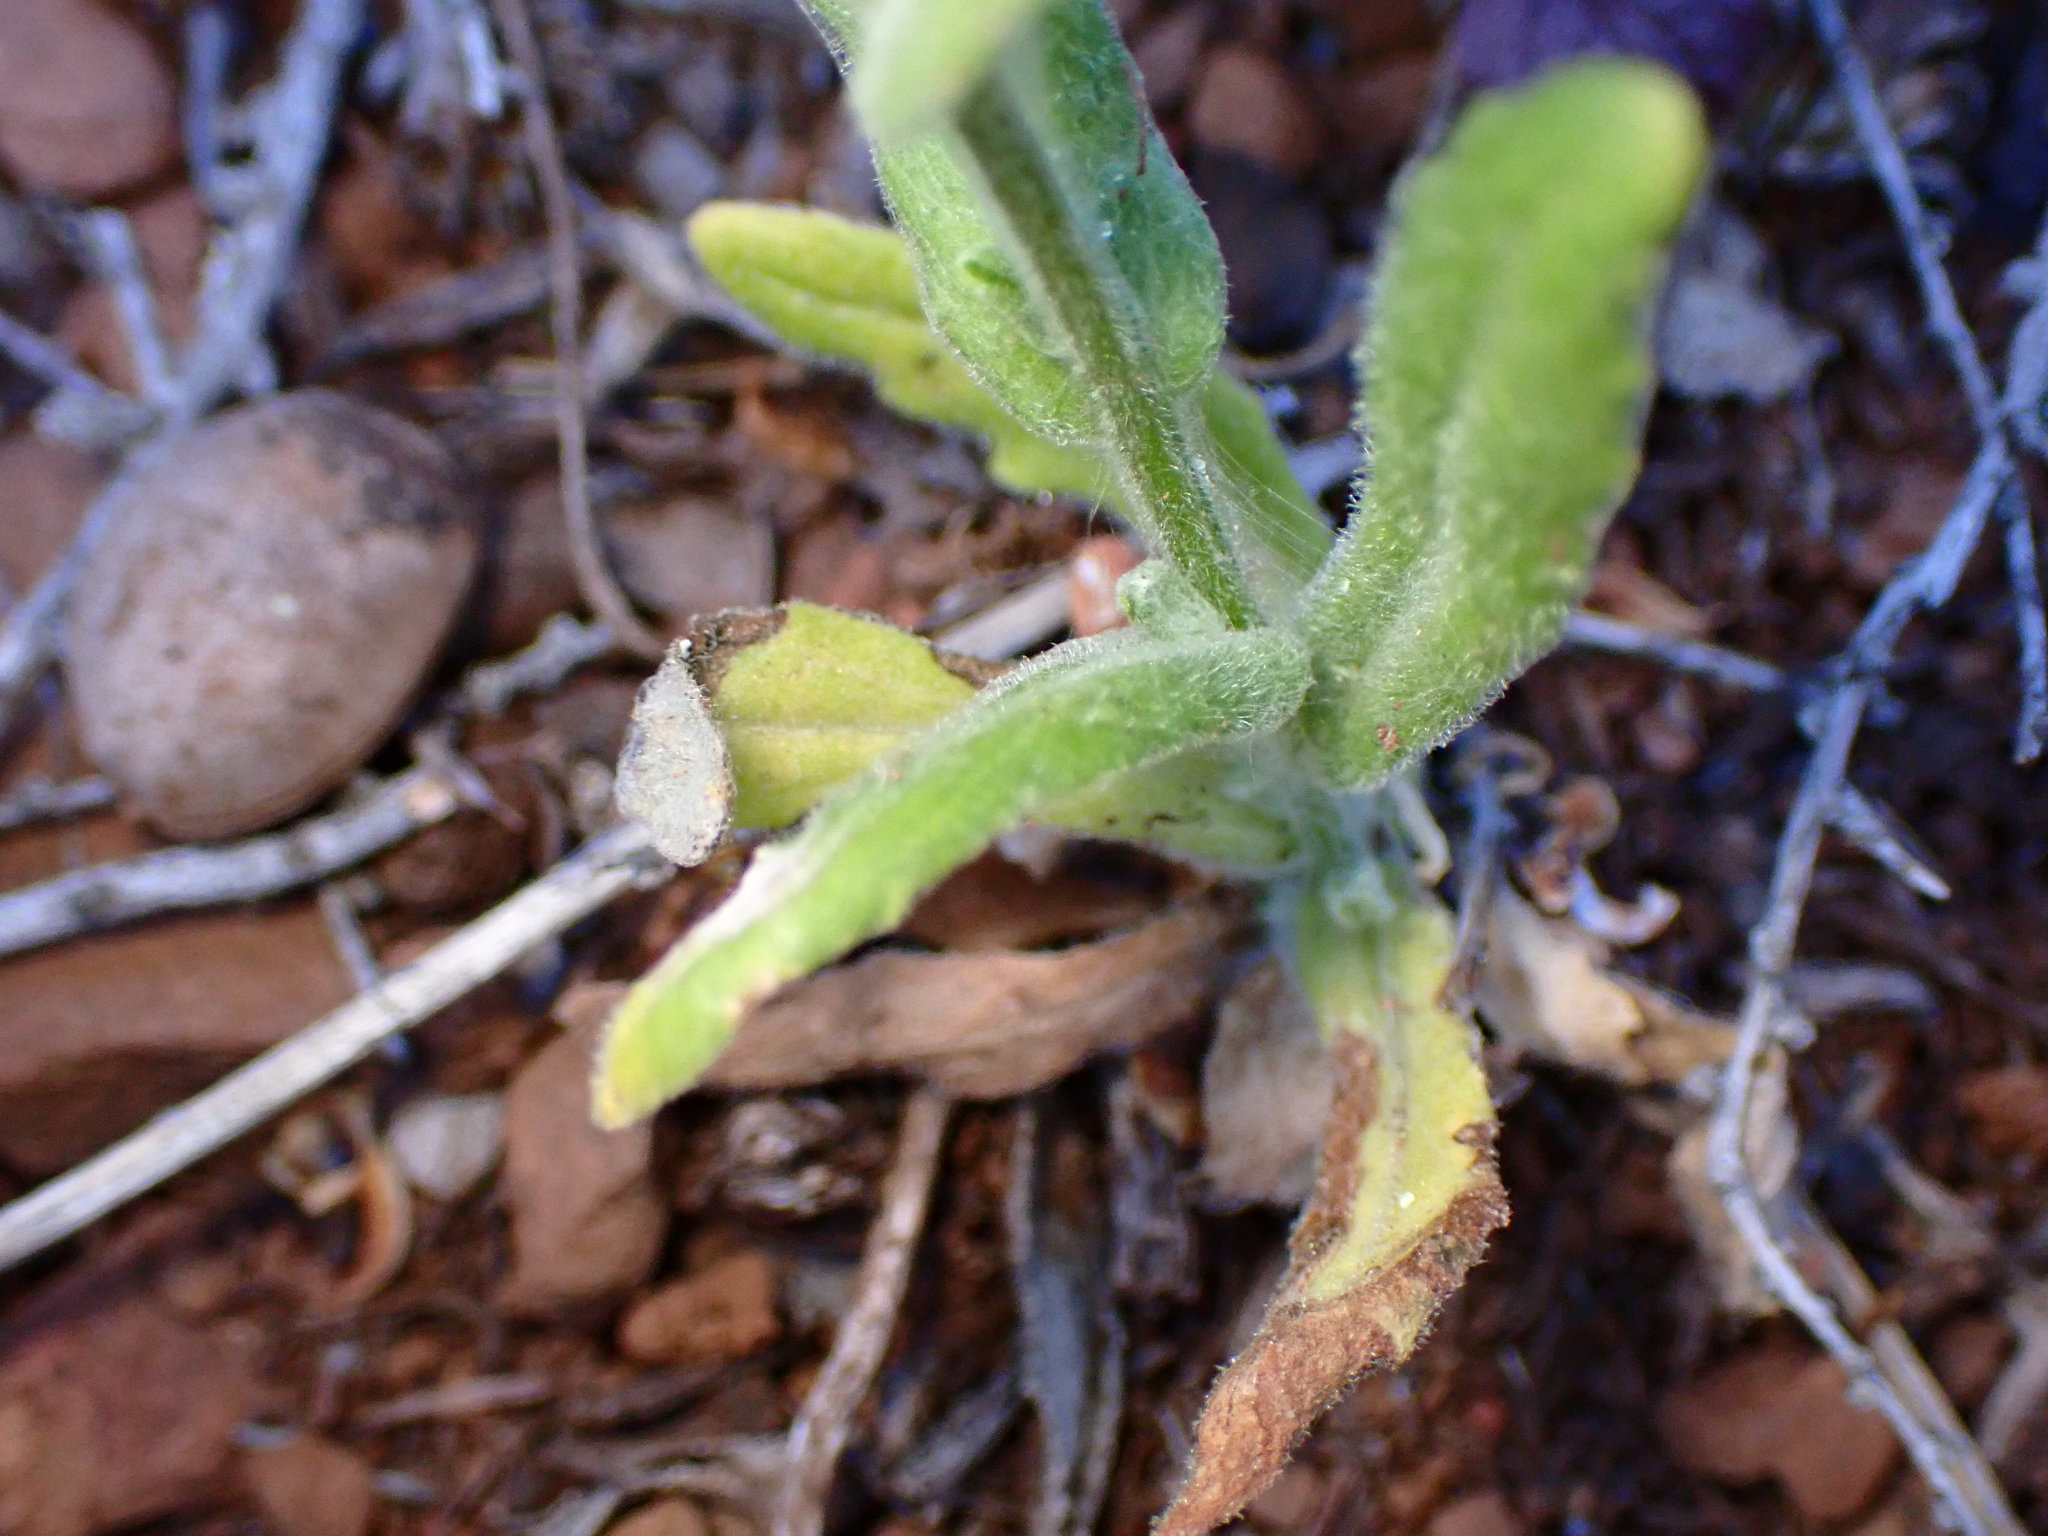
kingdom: Plantae
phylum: Tracheophyta
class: Magnoliopsida
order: Asterales
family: Asteraceae
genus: Monolopia
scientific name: Monolopia gracilens
